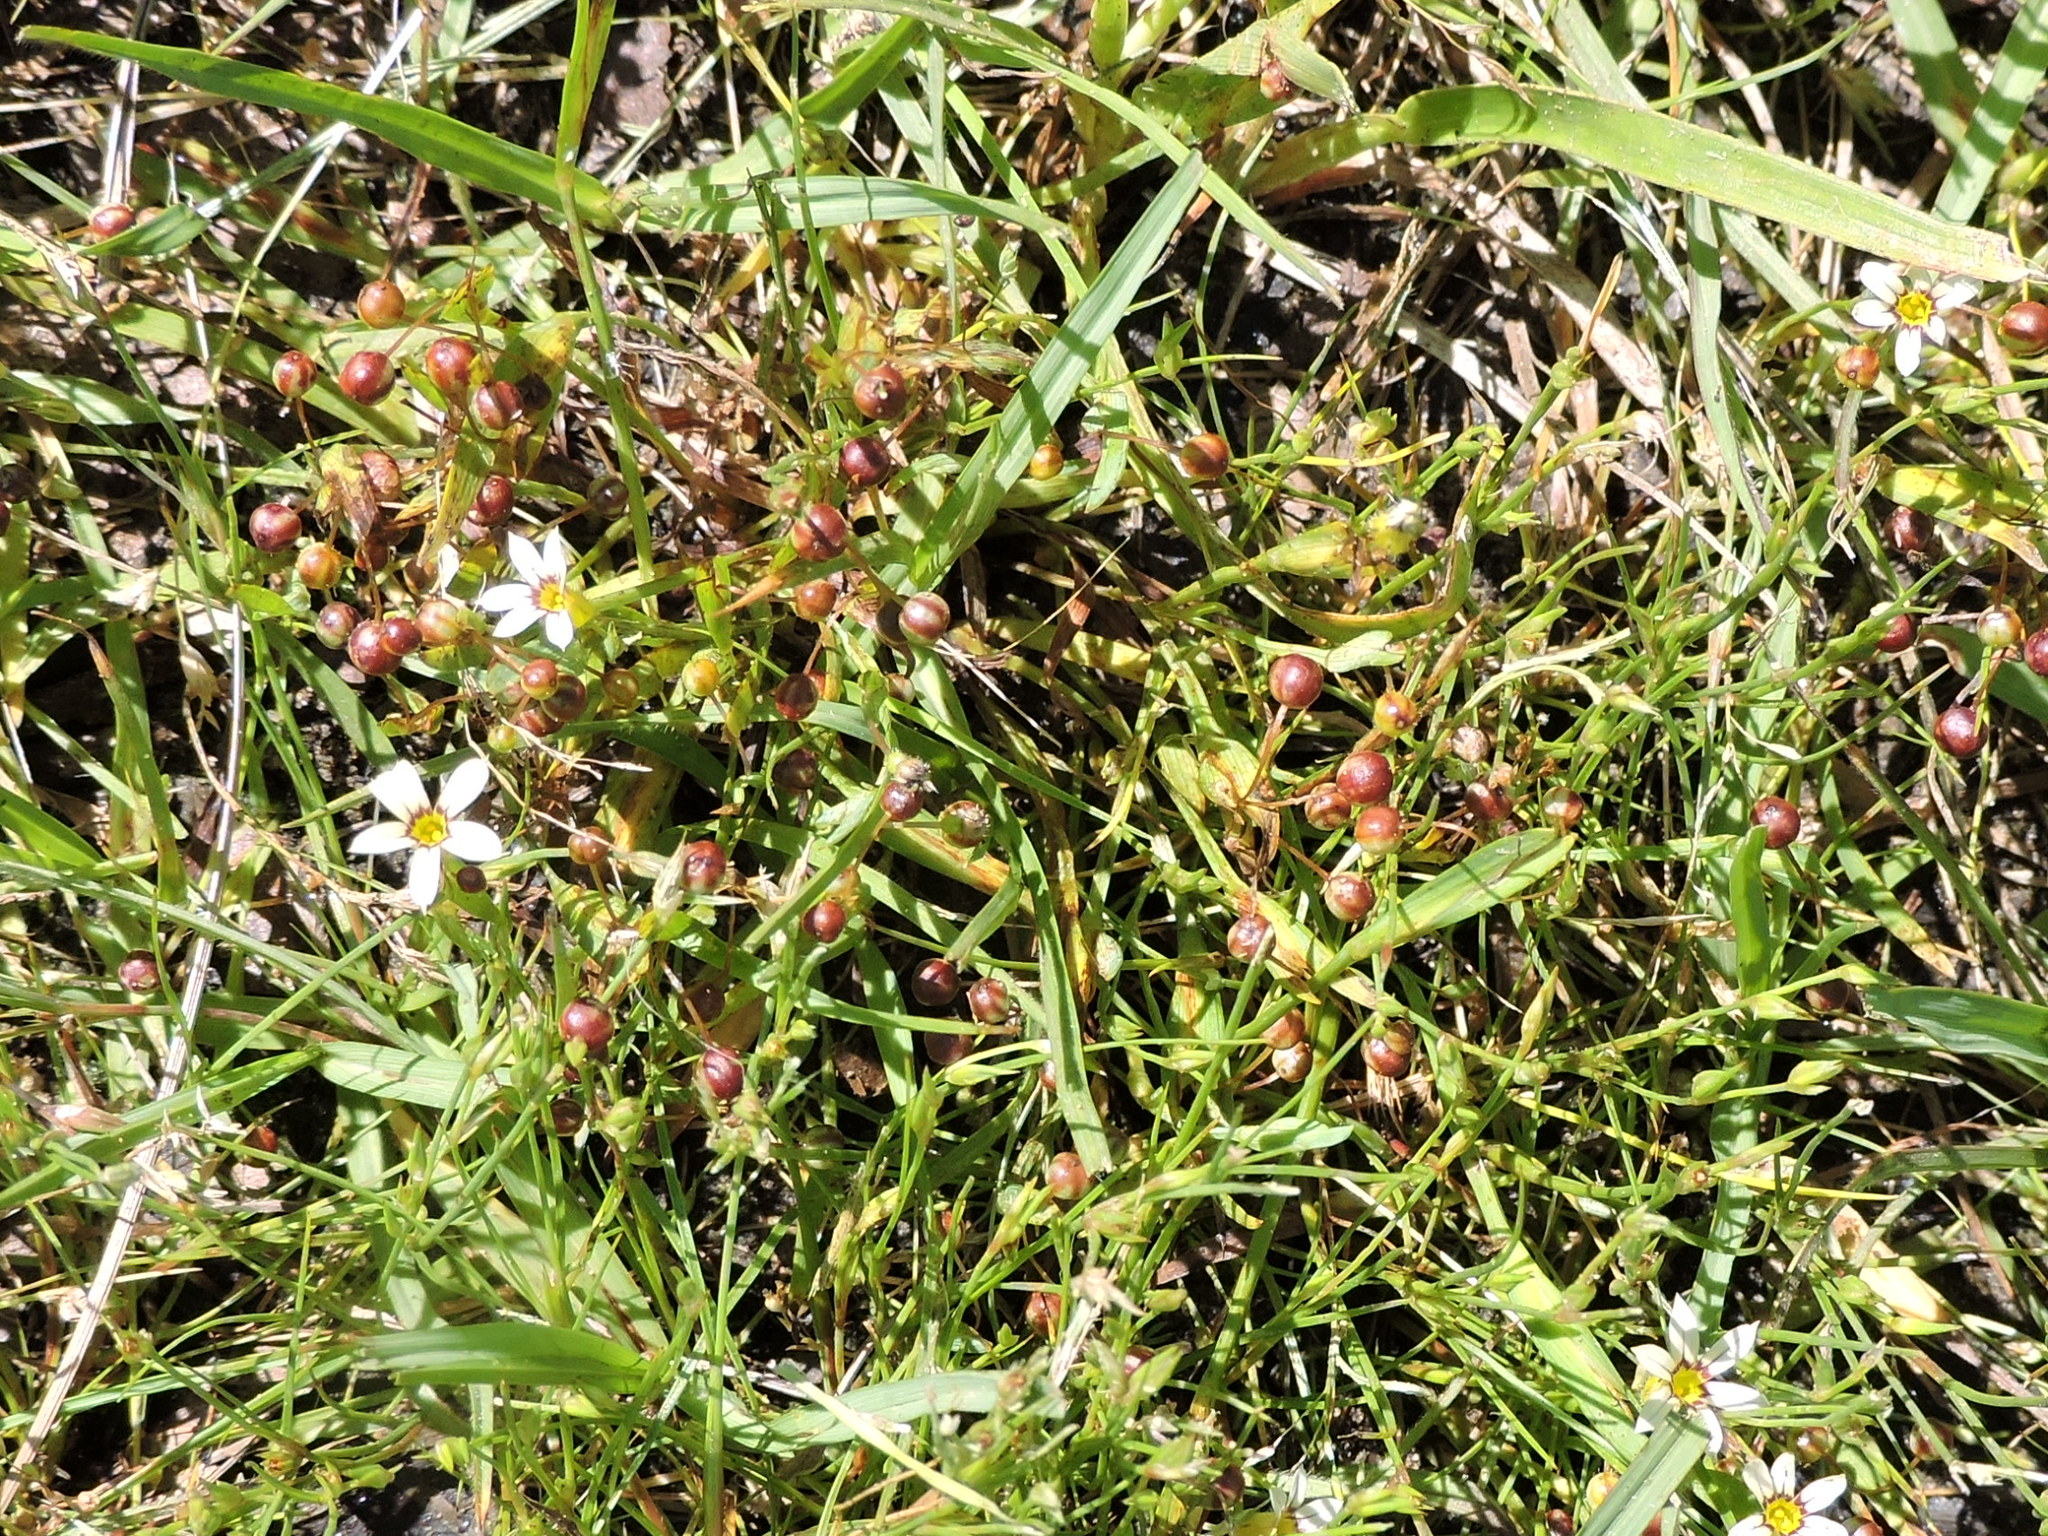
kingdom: Plantae
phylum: Tracheophyta
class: Liliopsida
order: Asparagales
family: Iridaceae
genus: Sisyrinchium
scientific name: Sisyrinchium micranthum
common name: Bermuda pigroot
